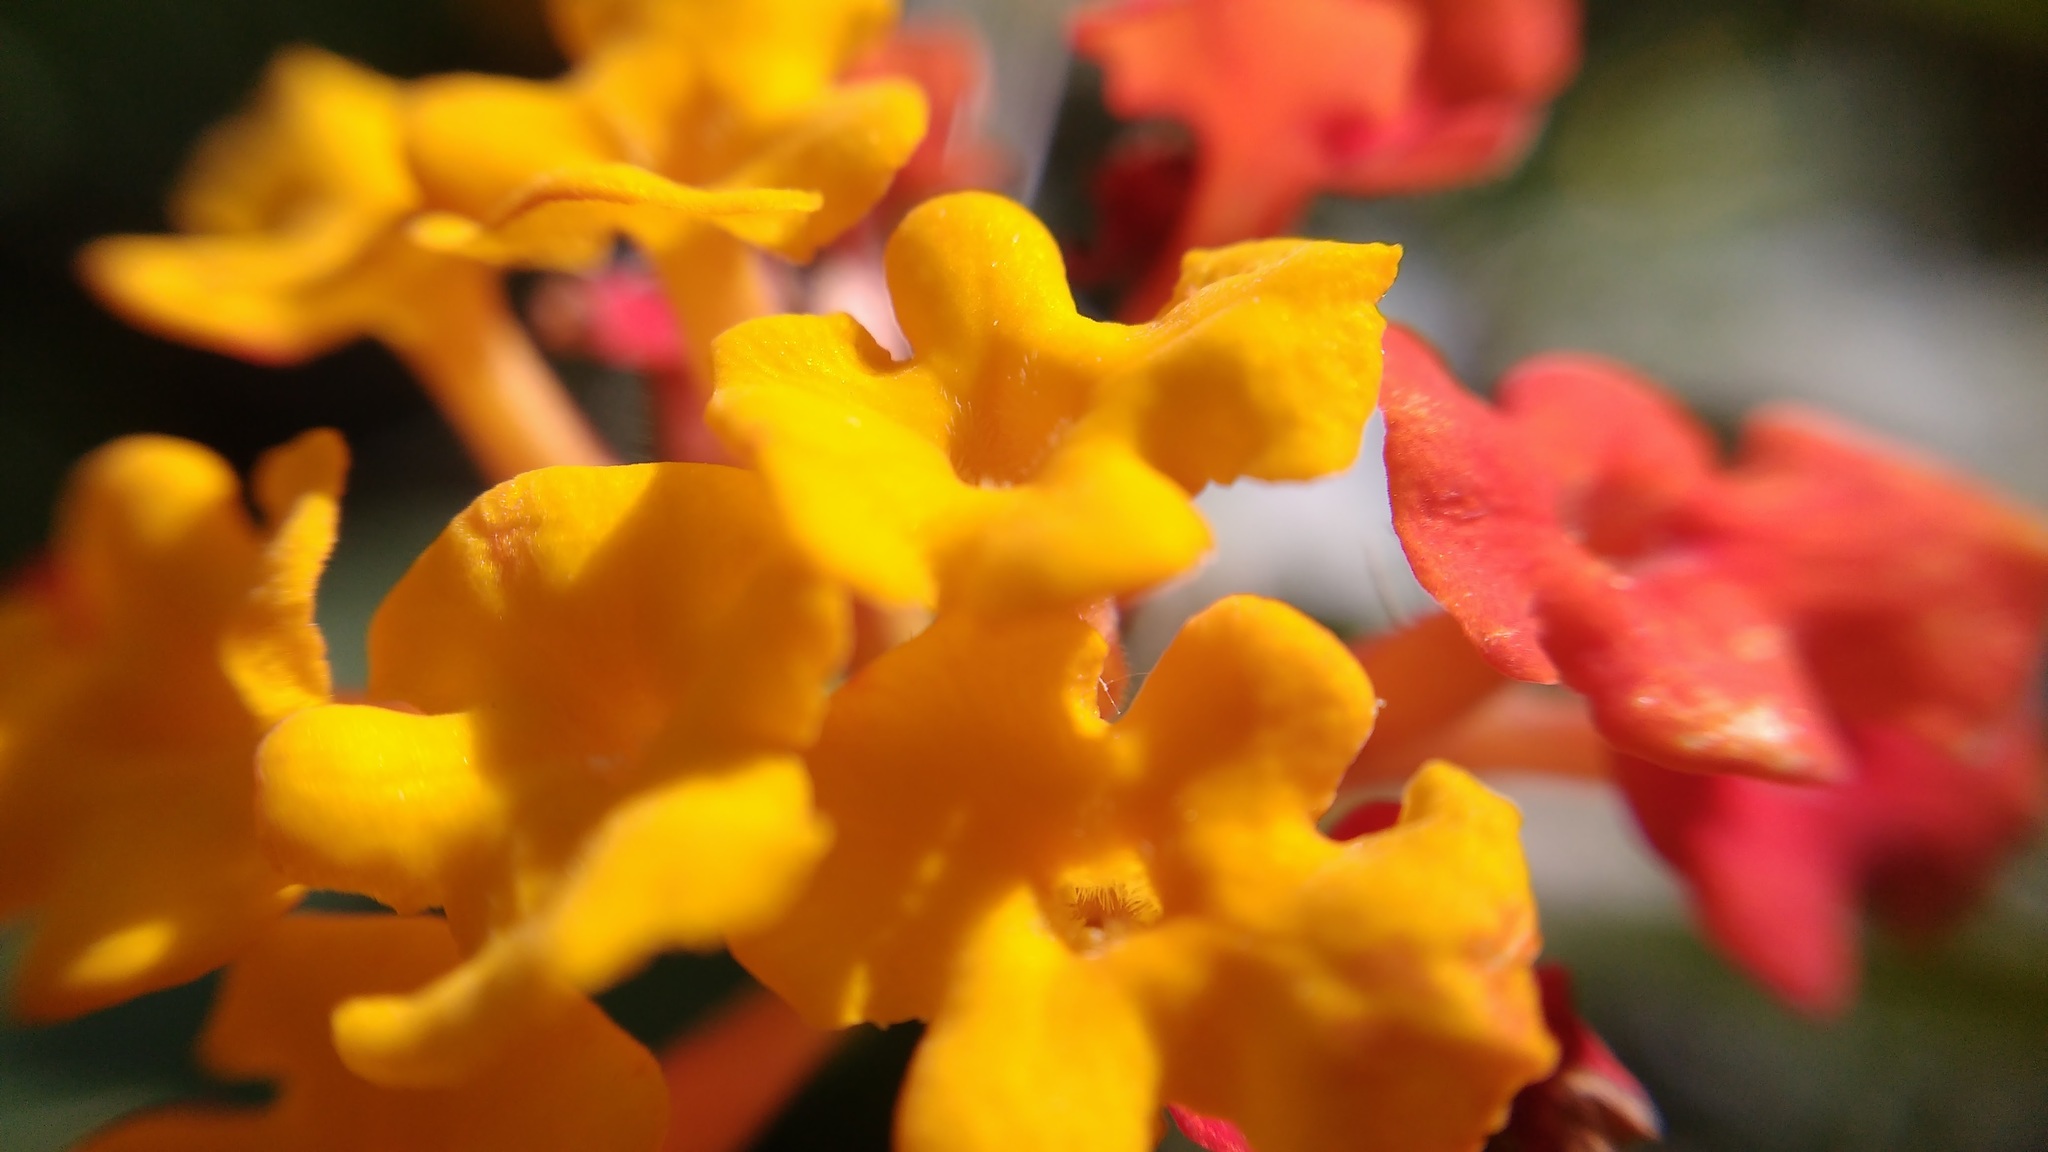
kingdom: Plantae
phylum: Tracheophyta
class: Magnoliopsida
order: Lamiales
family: Verbenaceae
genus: Lantana
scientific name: Lantana camara
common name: Lantana
